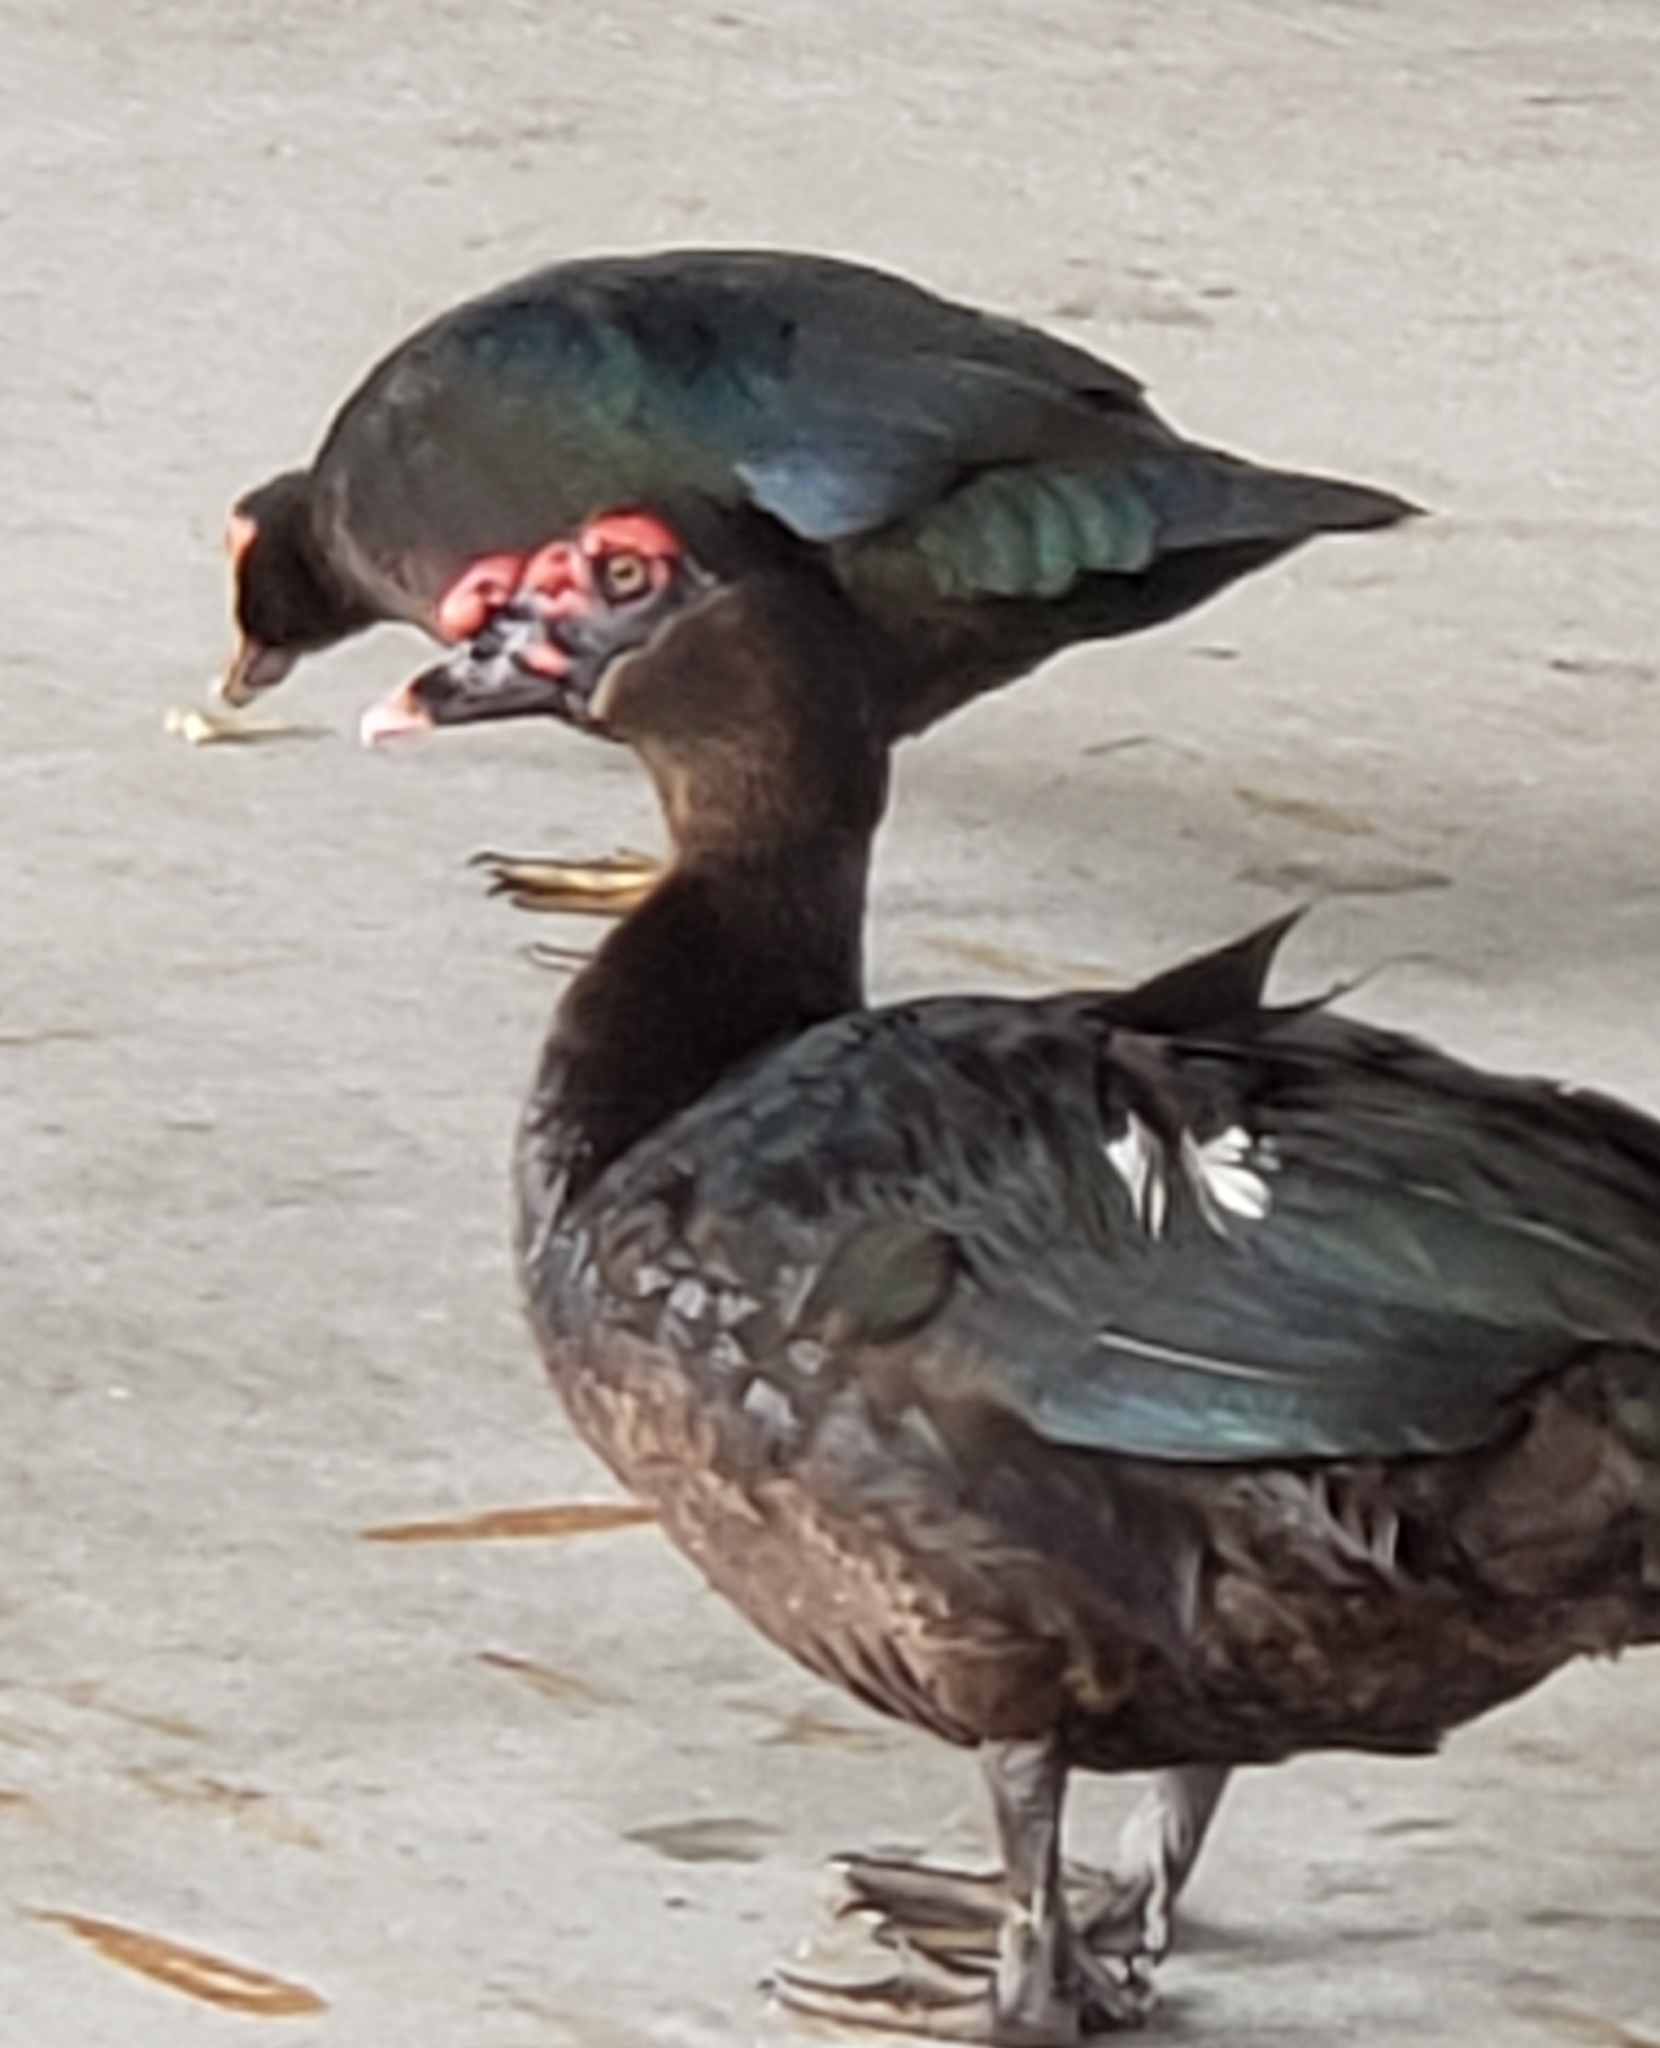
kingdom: Animalia
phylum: Chordata
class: Aves
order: Anseriformes
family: Anatidae
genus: Cairina
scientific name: Cairina moschata
